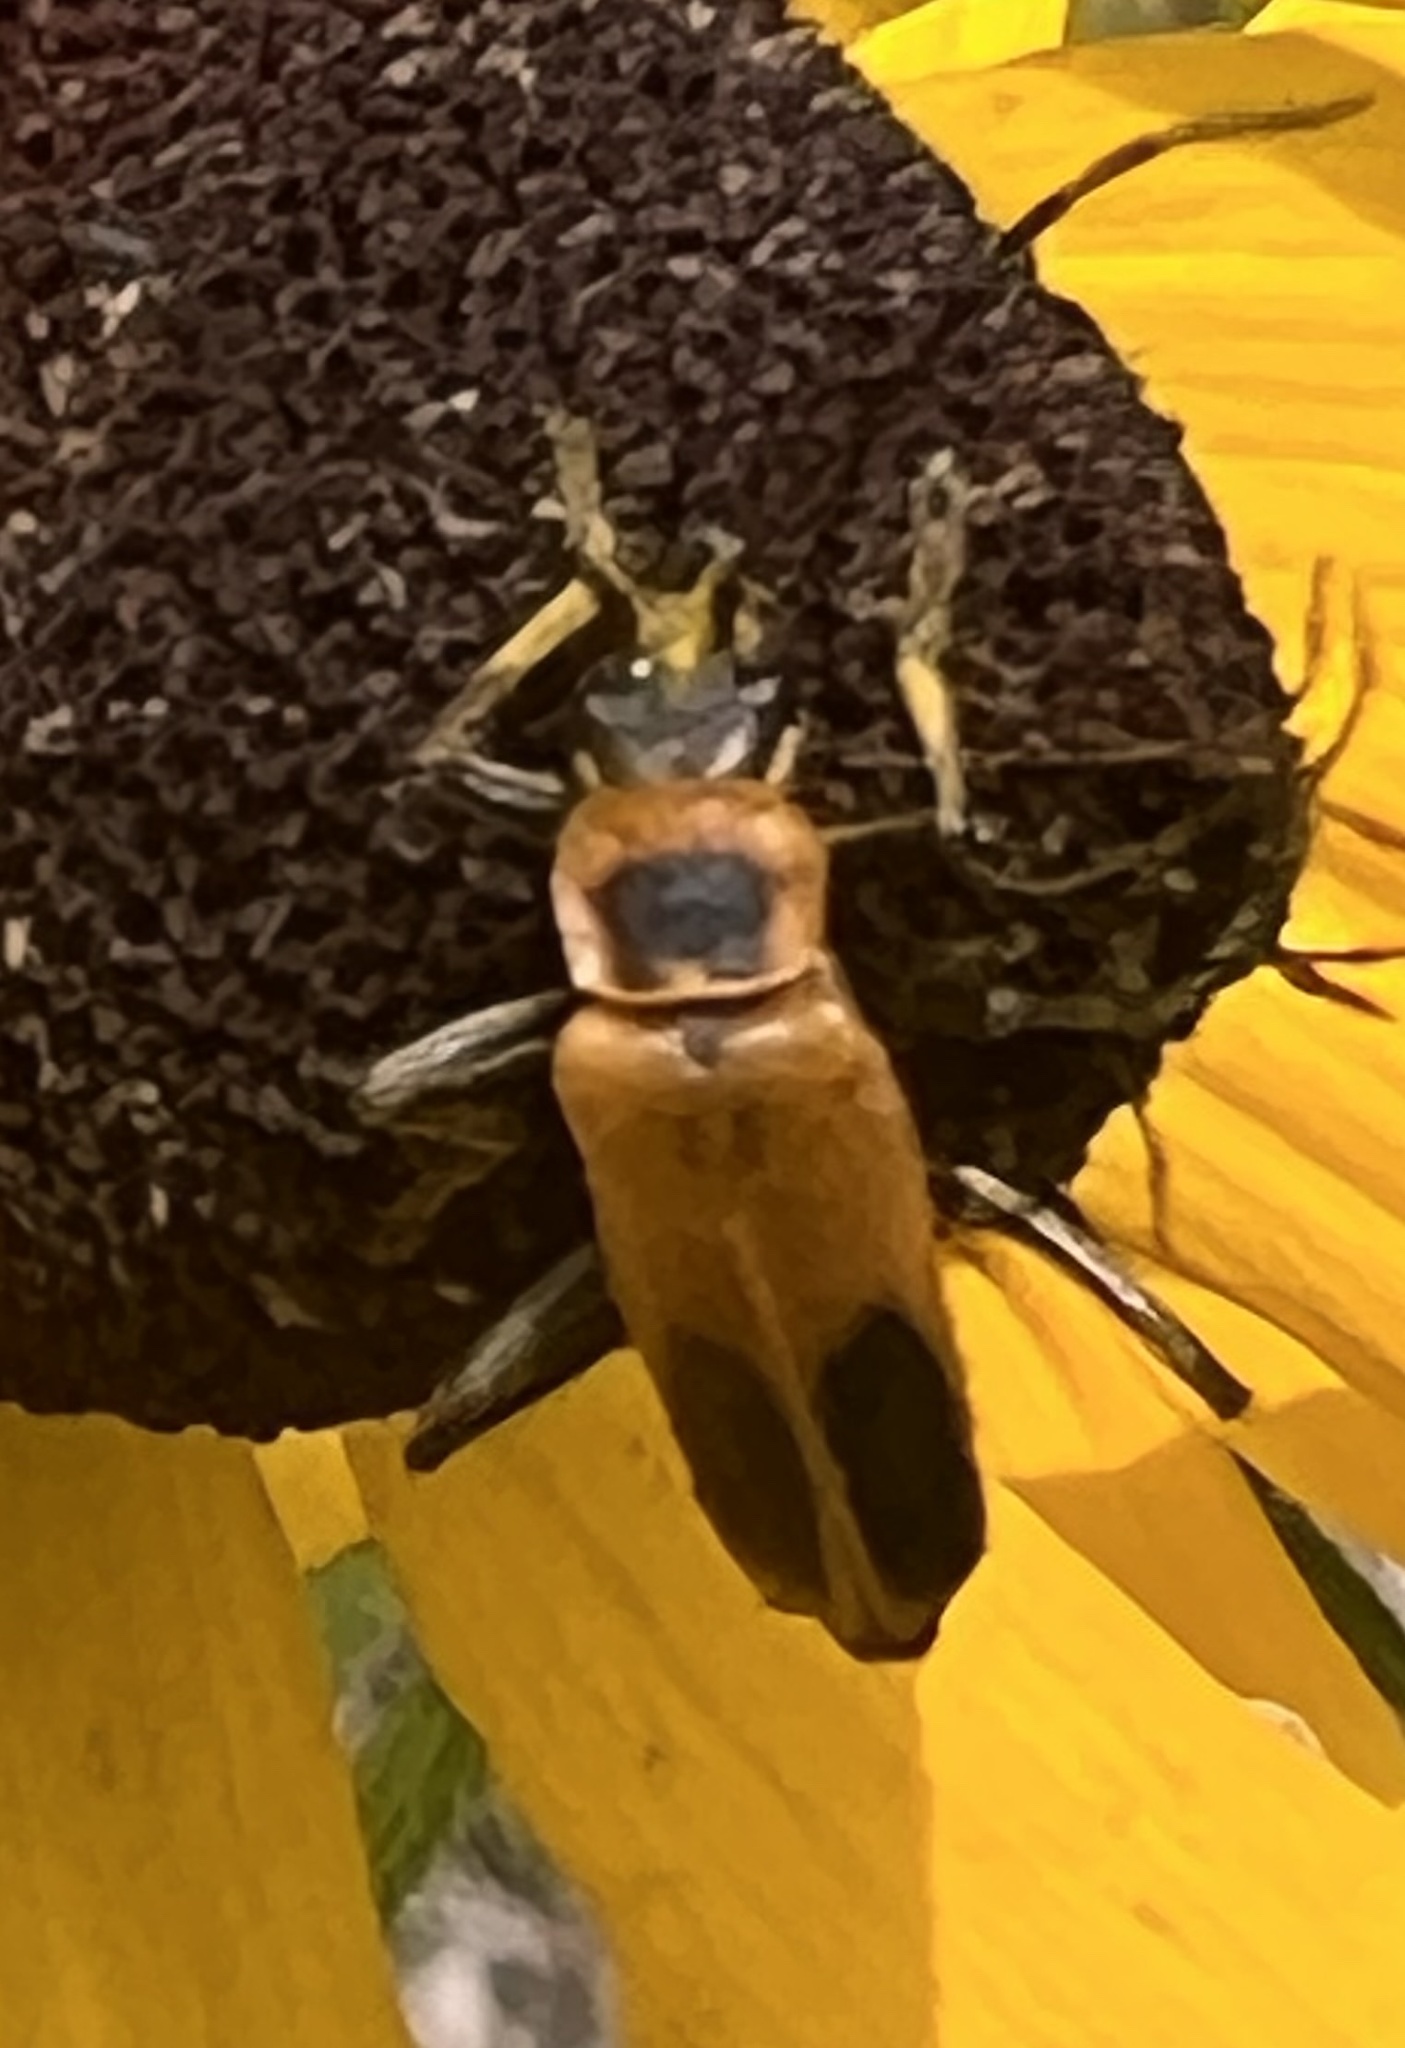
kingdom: Animalia
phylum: Arthropoda
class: Insecta
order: Coleoptera
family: Cantharidae
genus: Chauliognathus
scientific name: Chauliognathus pensylvanicus
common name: Goldenrod soldier beetle
